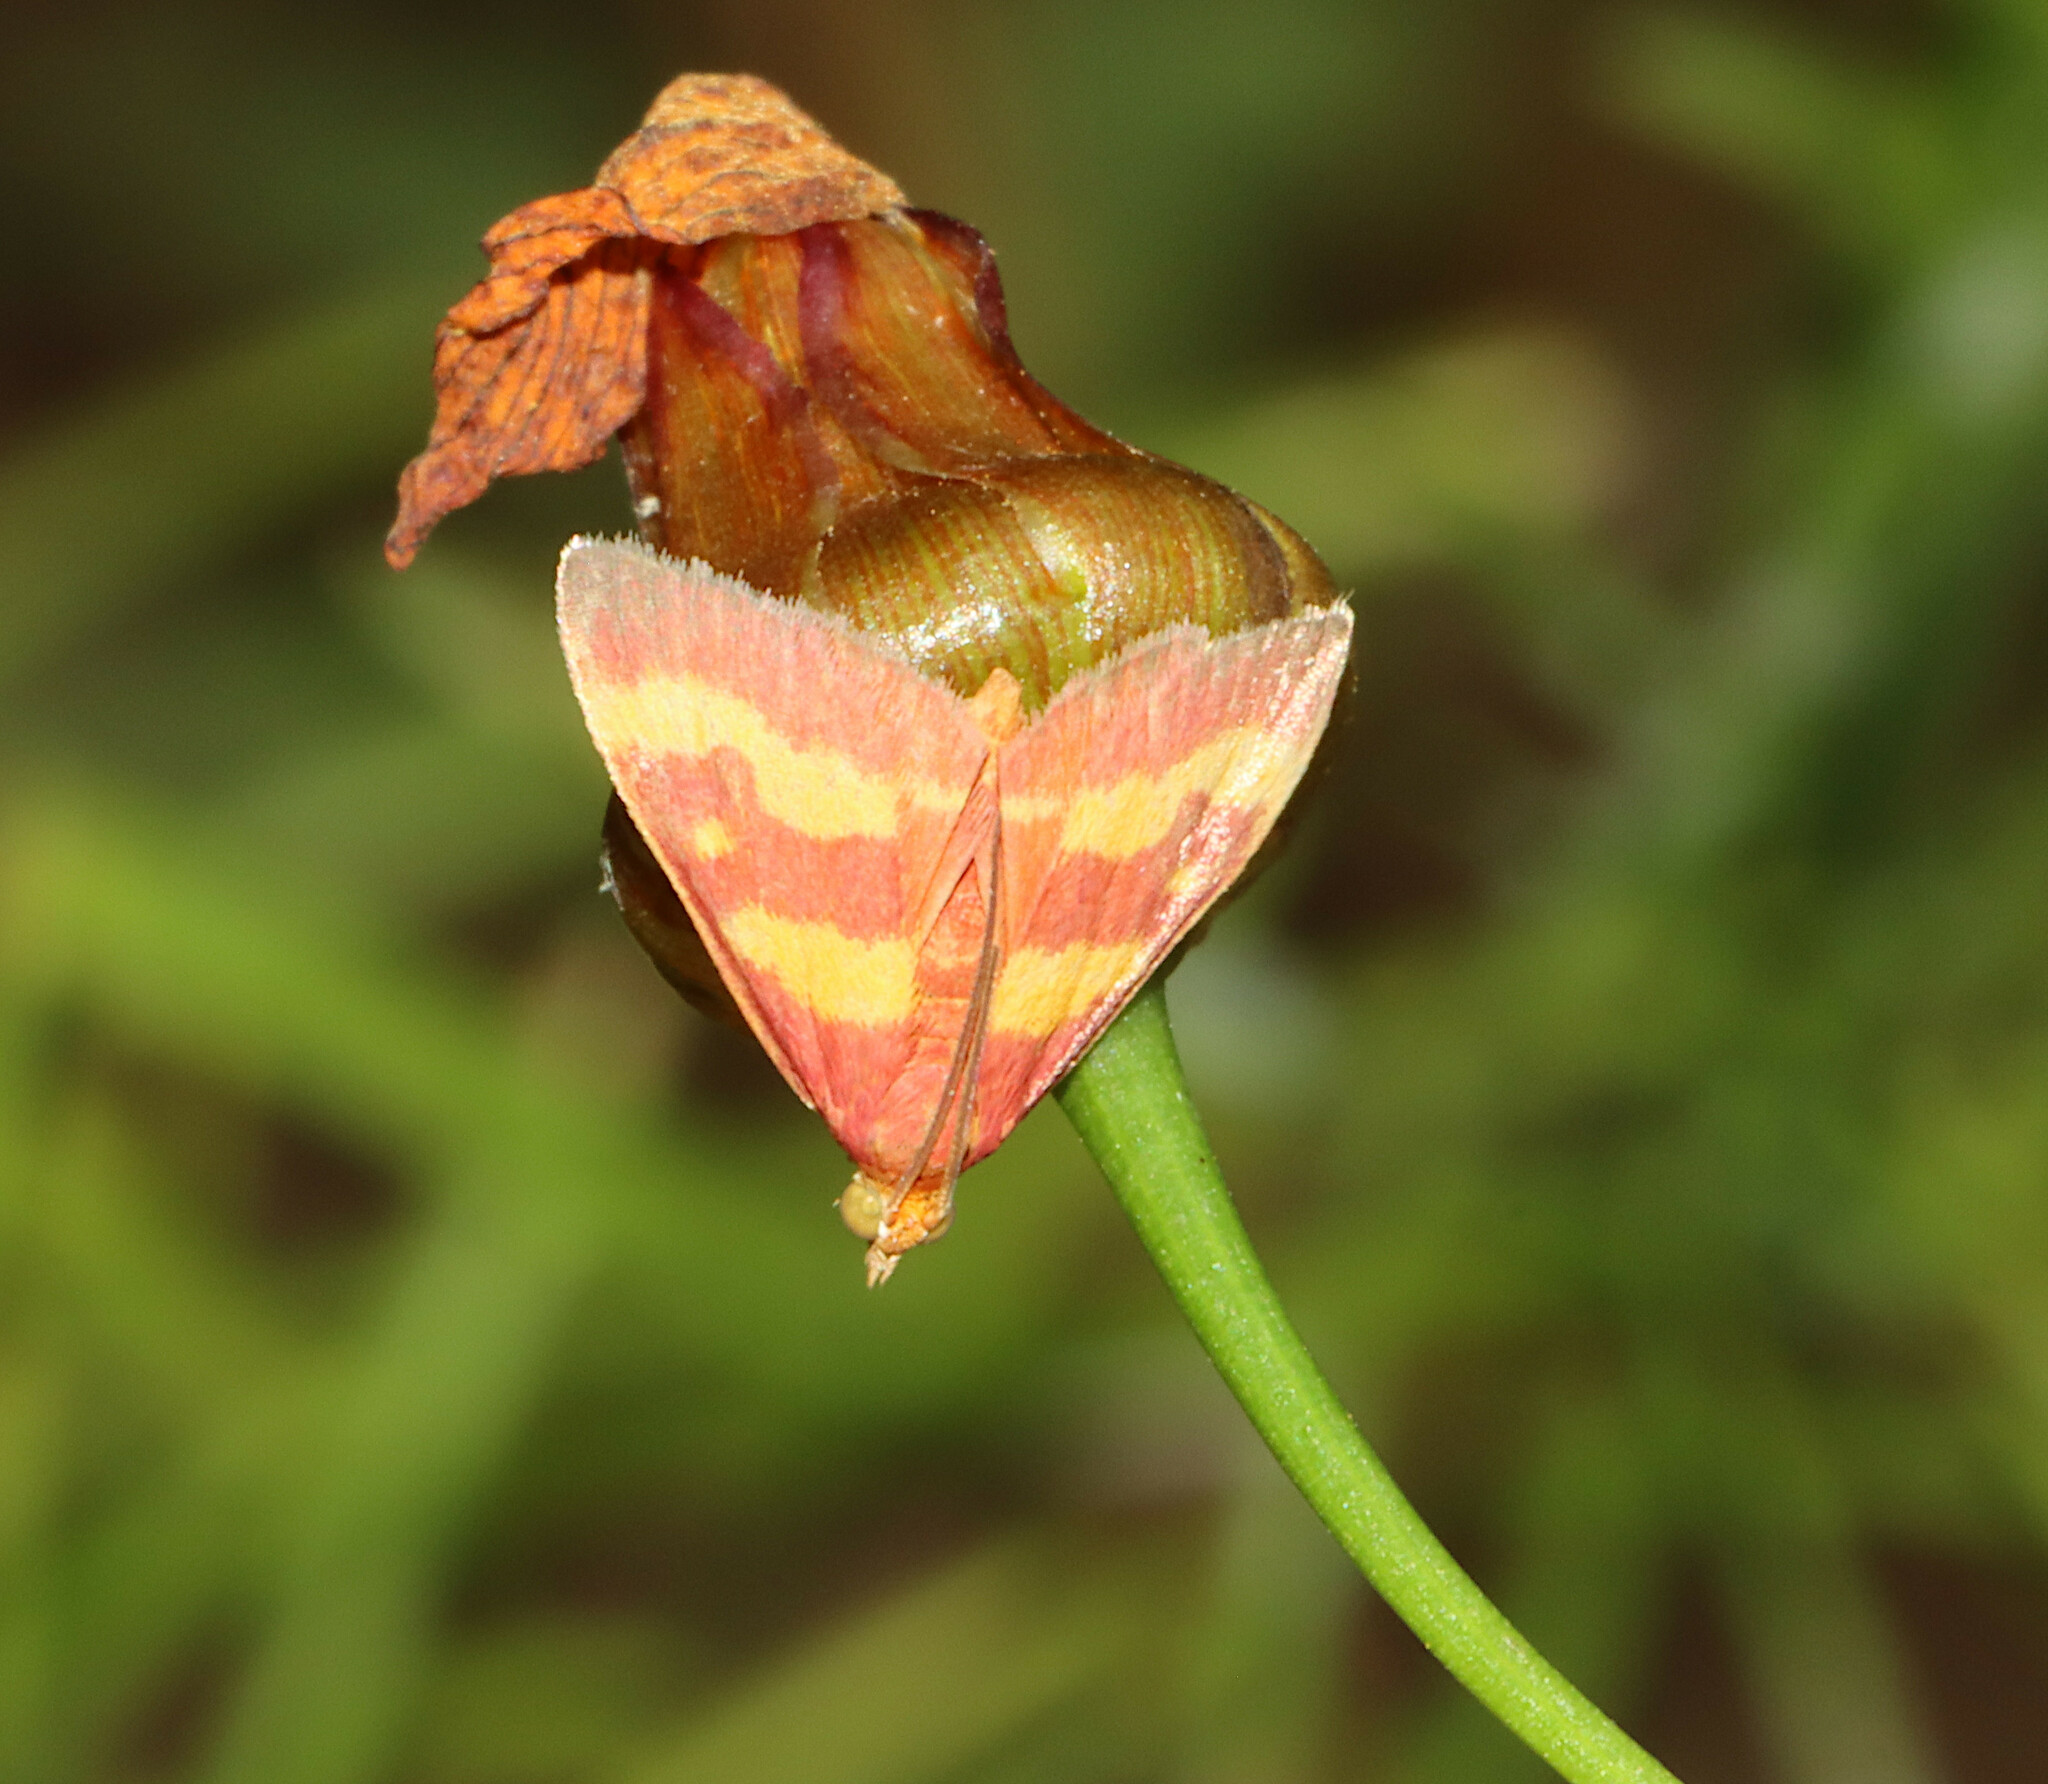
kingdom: Animalia
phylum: Arthropoda
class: Insecta
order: Lepidoptera
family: Crambidae
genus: Pyrausta
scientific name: Pyrausta tyralis
